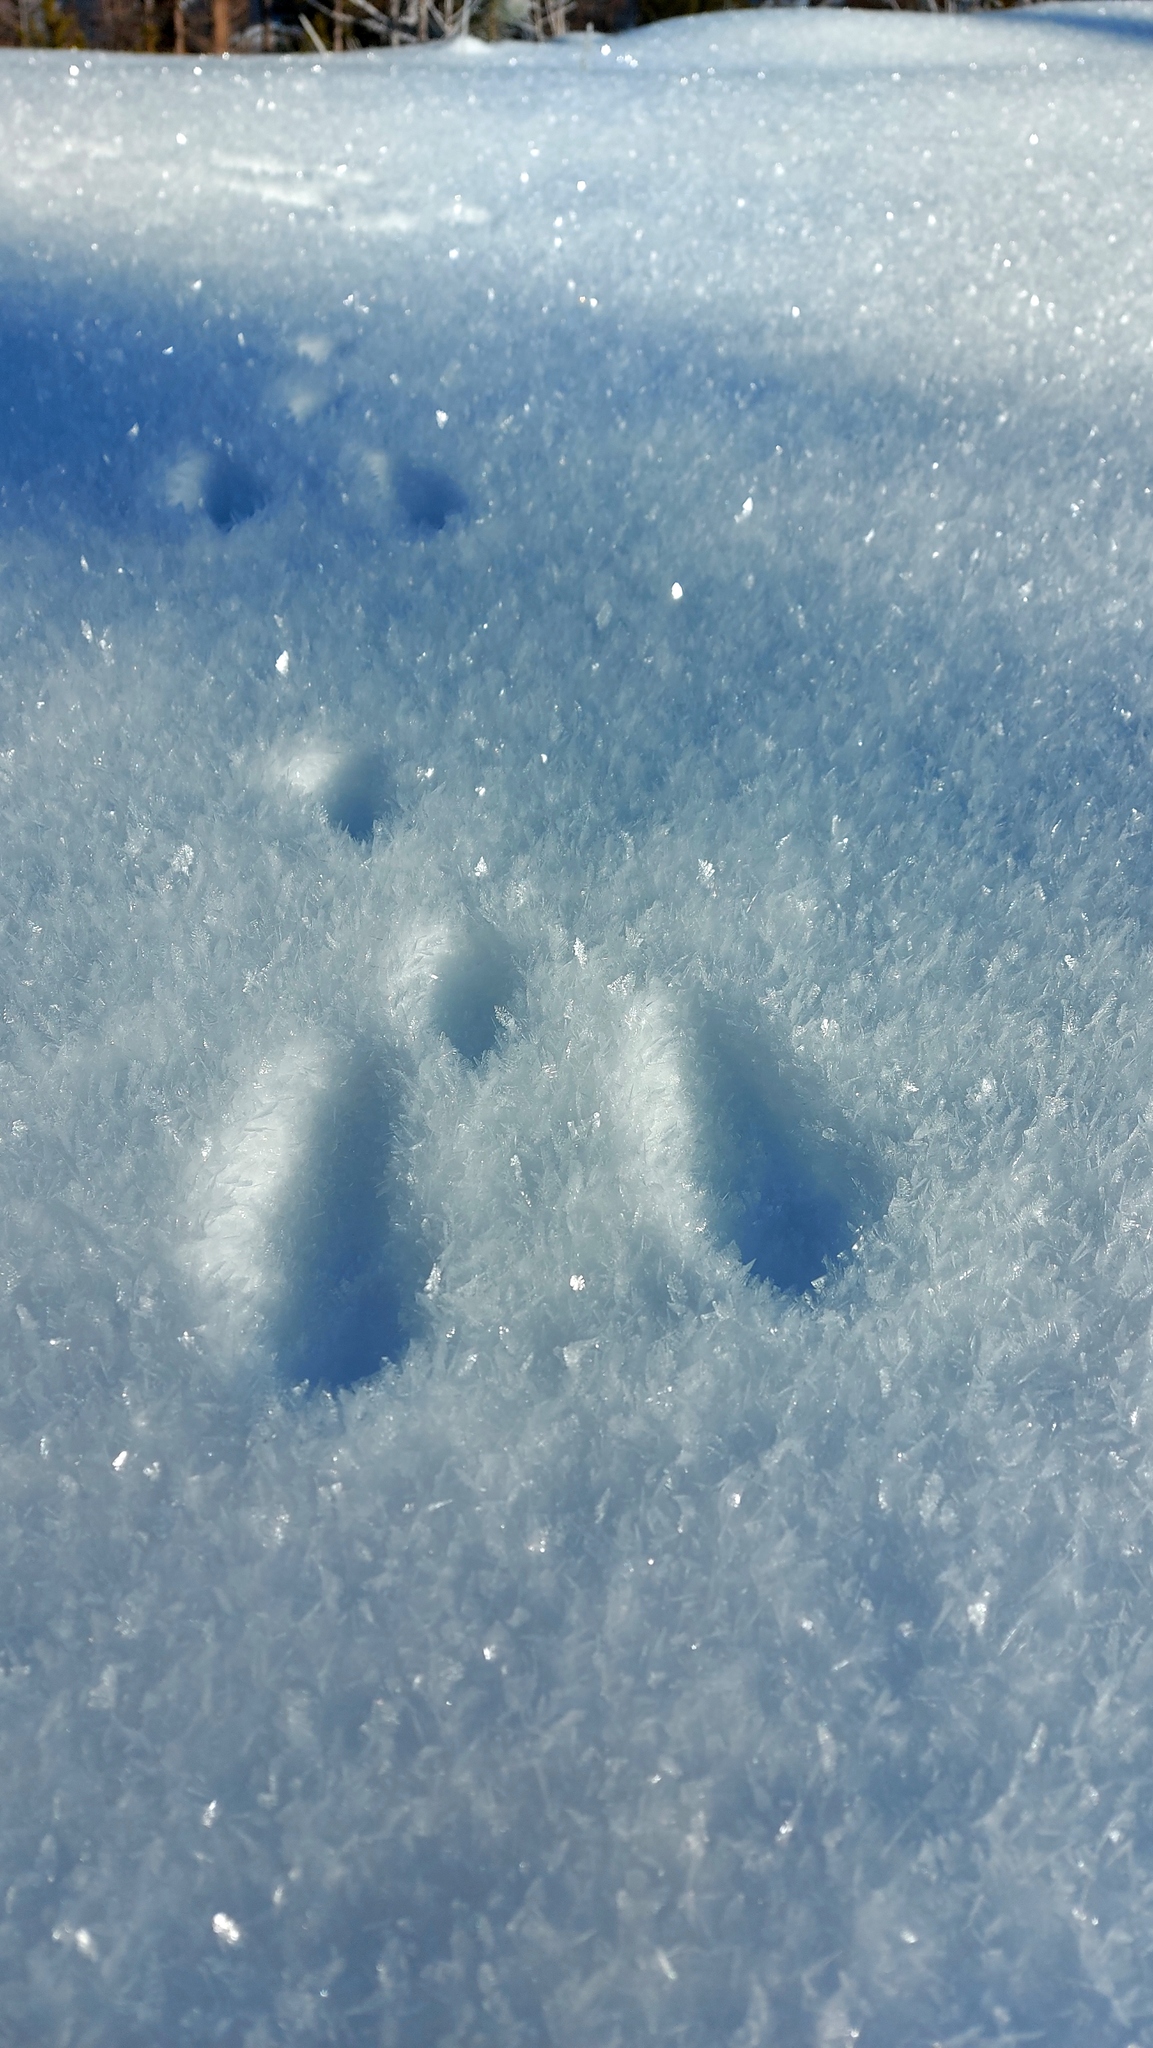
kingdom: Animalia
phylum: Chordata
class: Mammalia
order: Lagomorpha
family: Leporidae
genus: Lepus
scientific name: Lepus americanus
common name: Snowshoe hare
